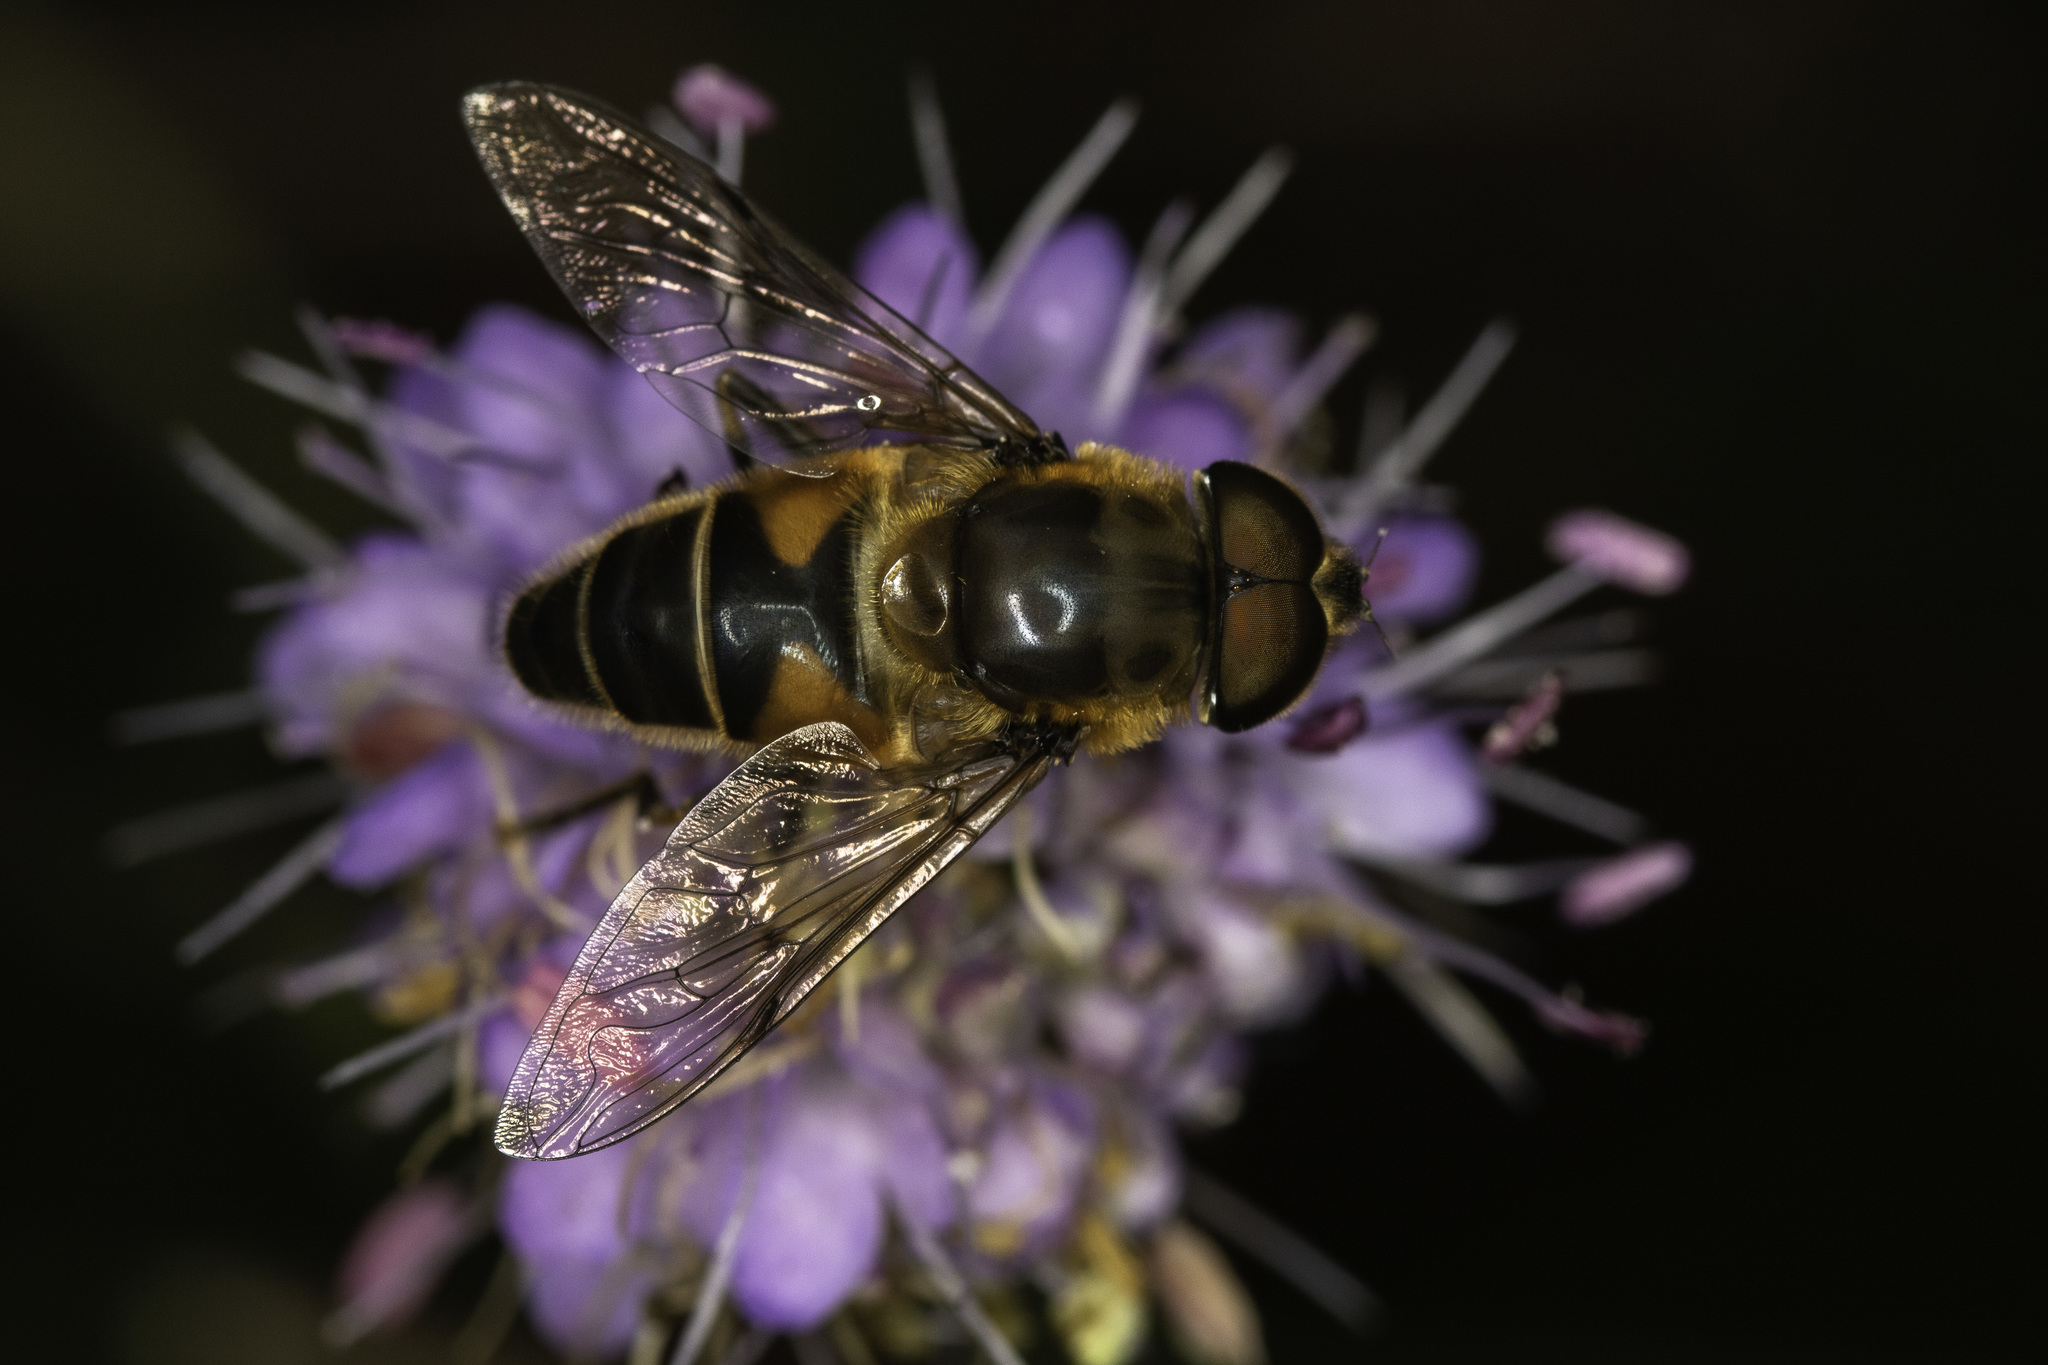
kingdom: Animalia
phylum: Arthropoda
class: Insecta
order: Diptera
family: Syrphidae
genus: Eristalis
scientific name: Eristalis
